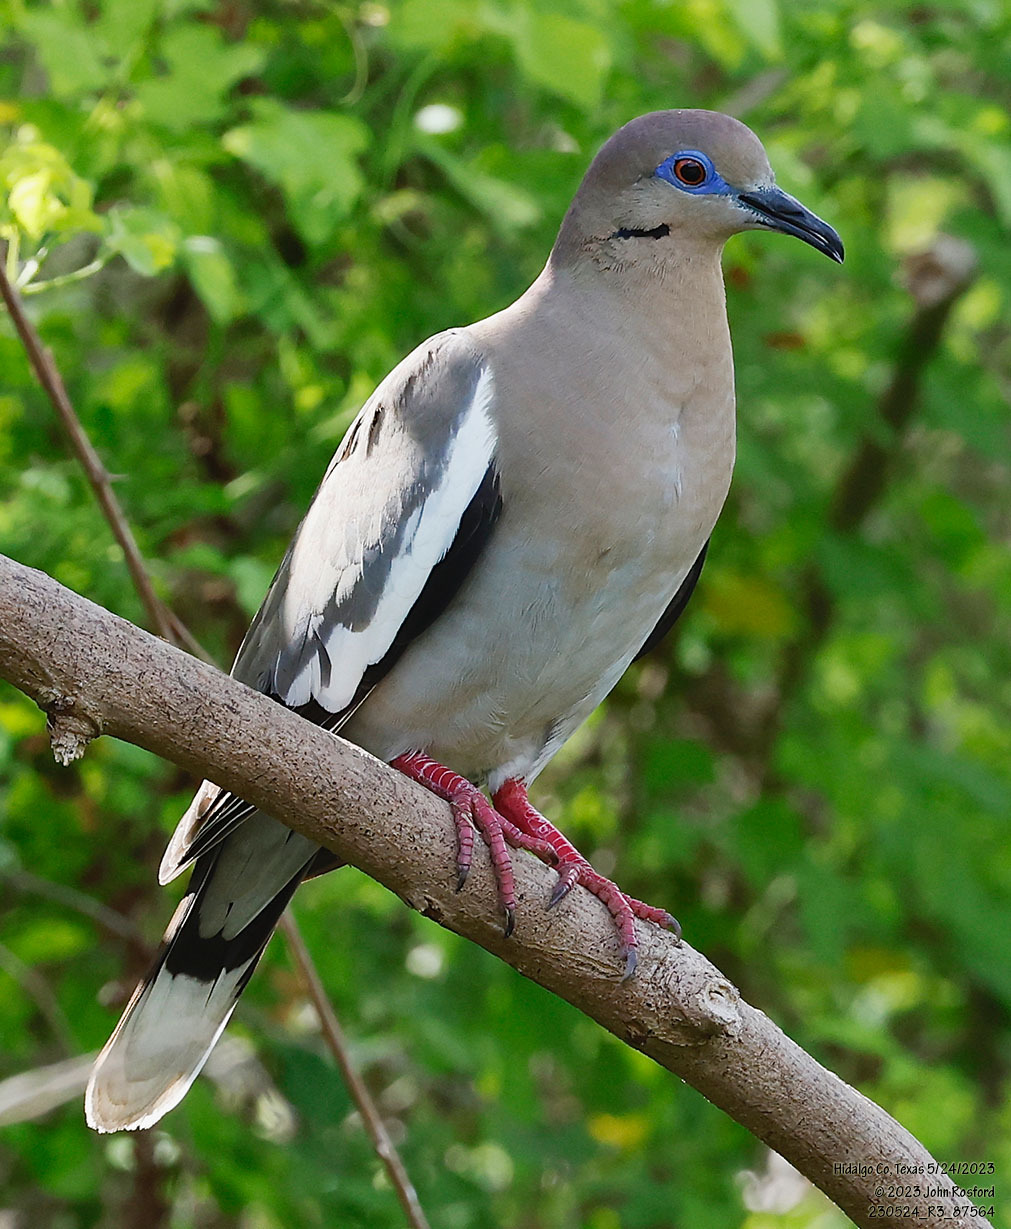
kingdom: Animalia
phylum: Chordata
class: Aves
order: Columbiformes
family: Columbidae
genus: Zenaida
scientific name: Zenaida asiatica
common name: White-winged dove
